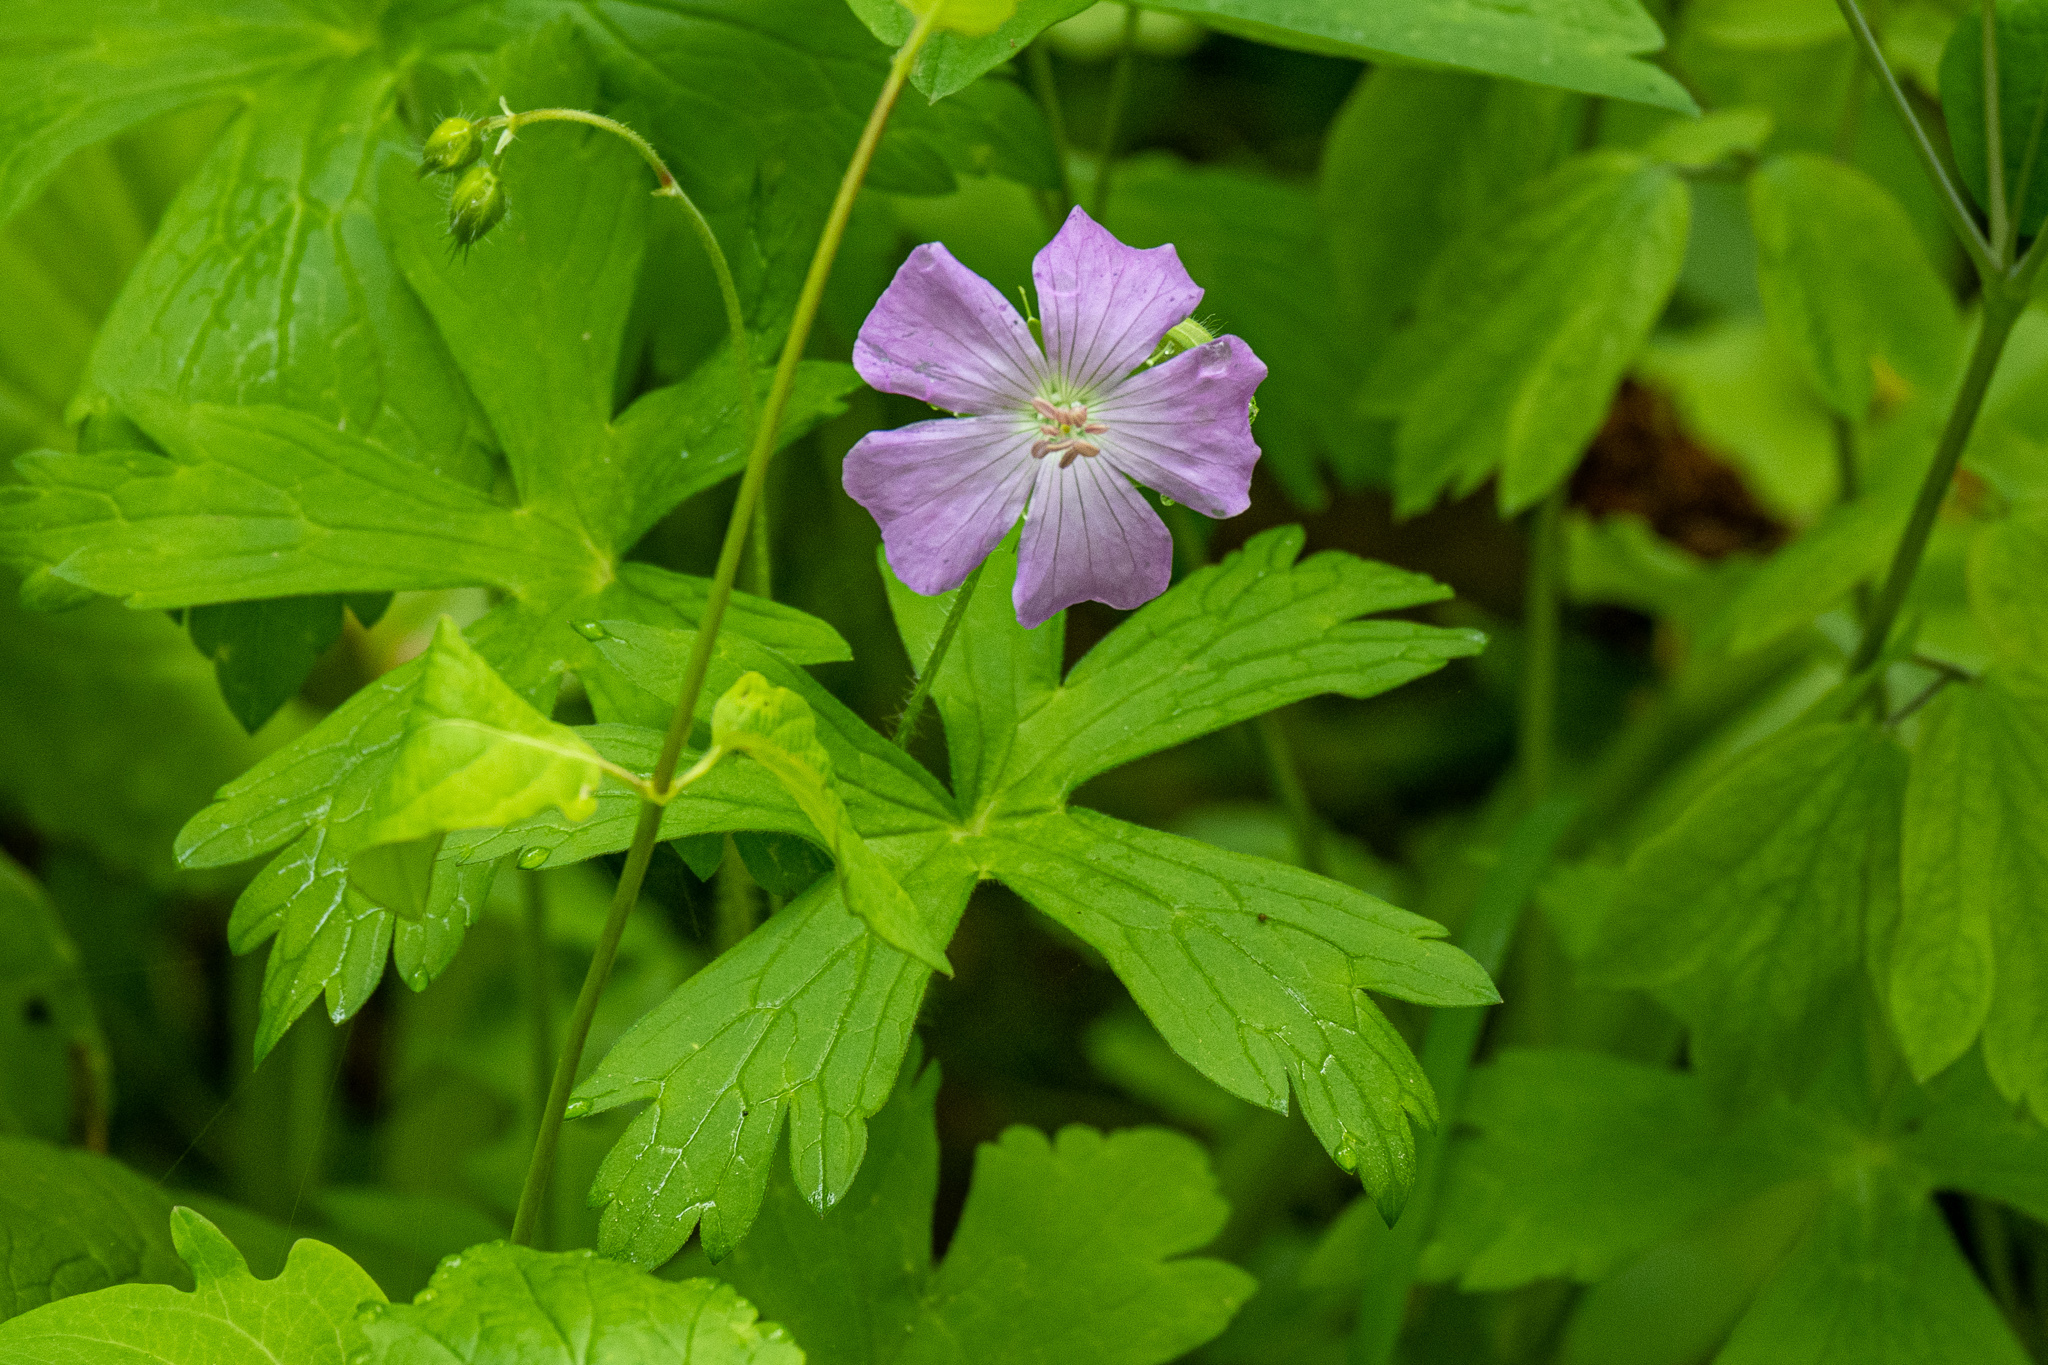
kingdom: Plantae
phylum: Tracheophyta
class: Magnoliopsida
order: Geraniales
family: Geraniaceae
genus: Geranium
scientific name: Geranium maculatum
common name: Spotted geranium
